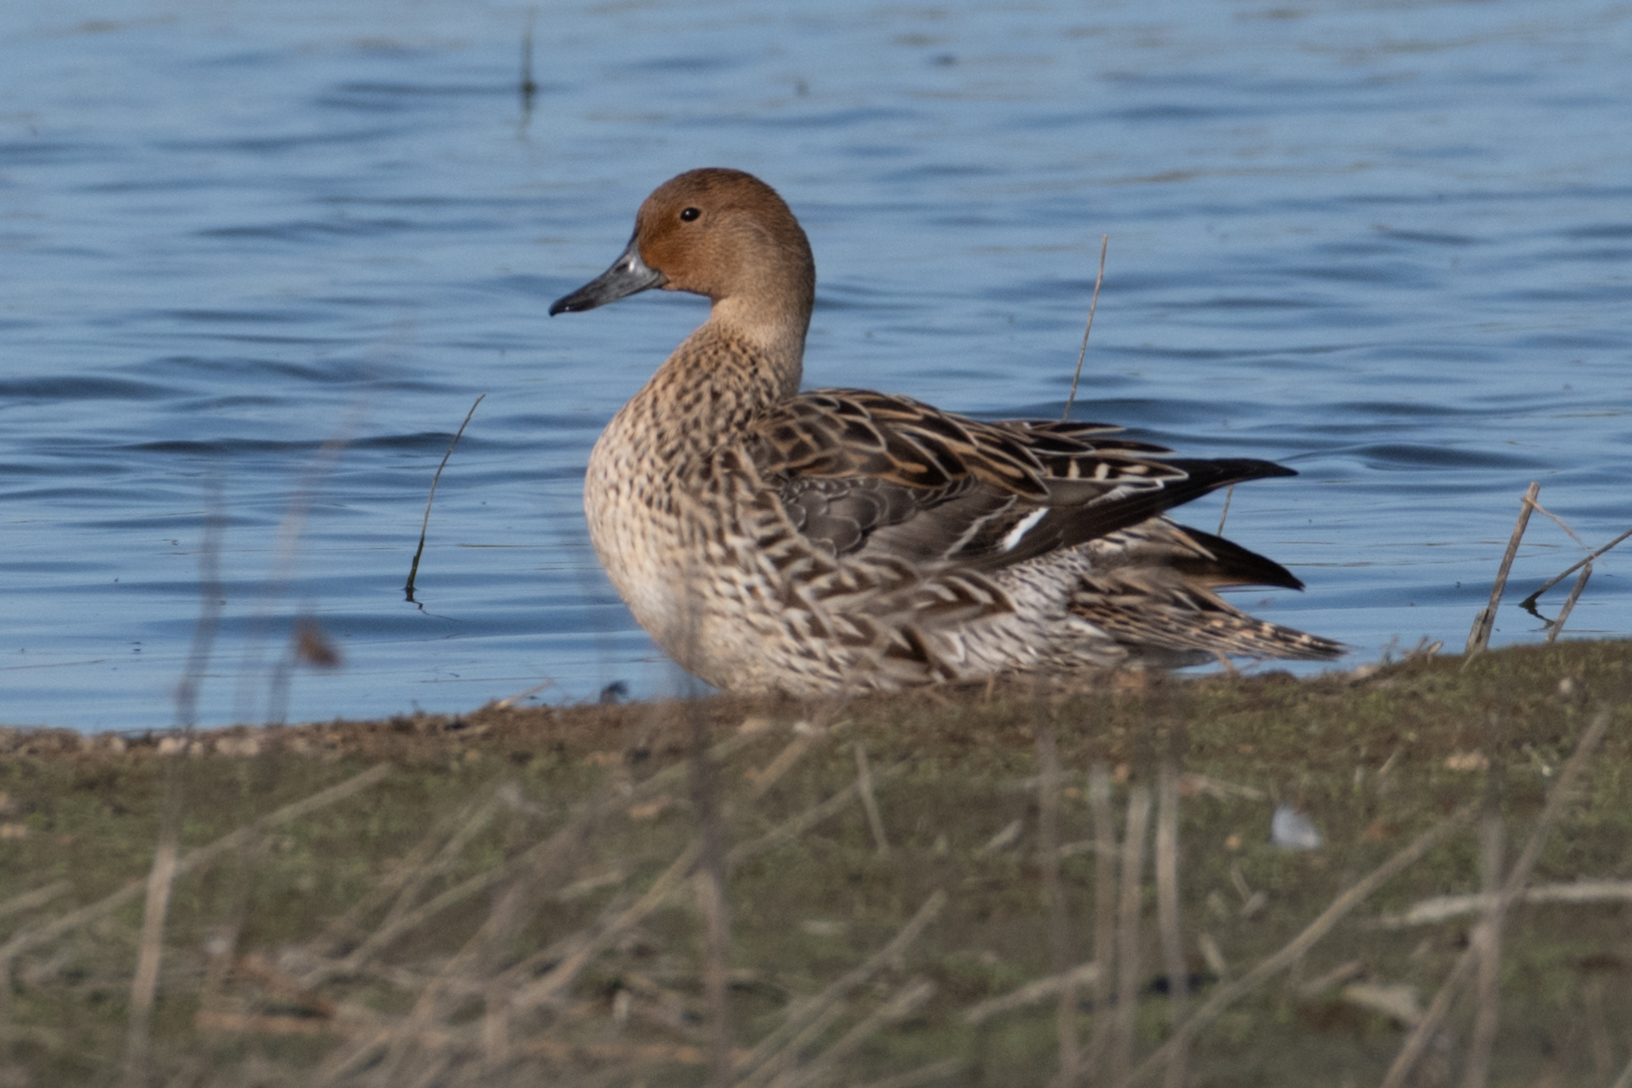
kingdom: Animalia
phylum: Chordata
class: Aves
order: Anseriformes
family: Anatidae
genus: Anas
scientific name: Anas acuta
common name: Northern pintail
